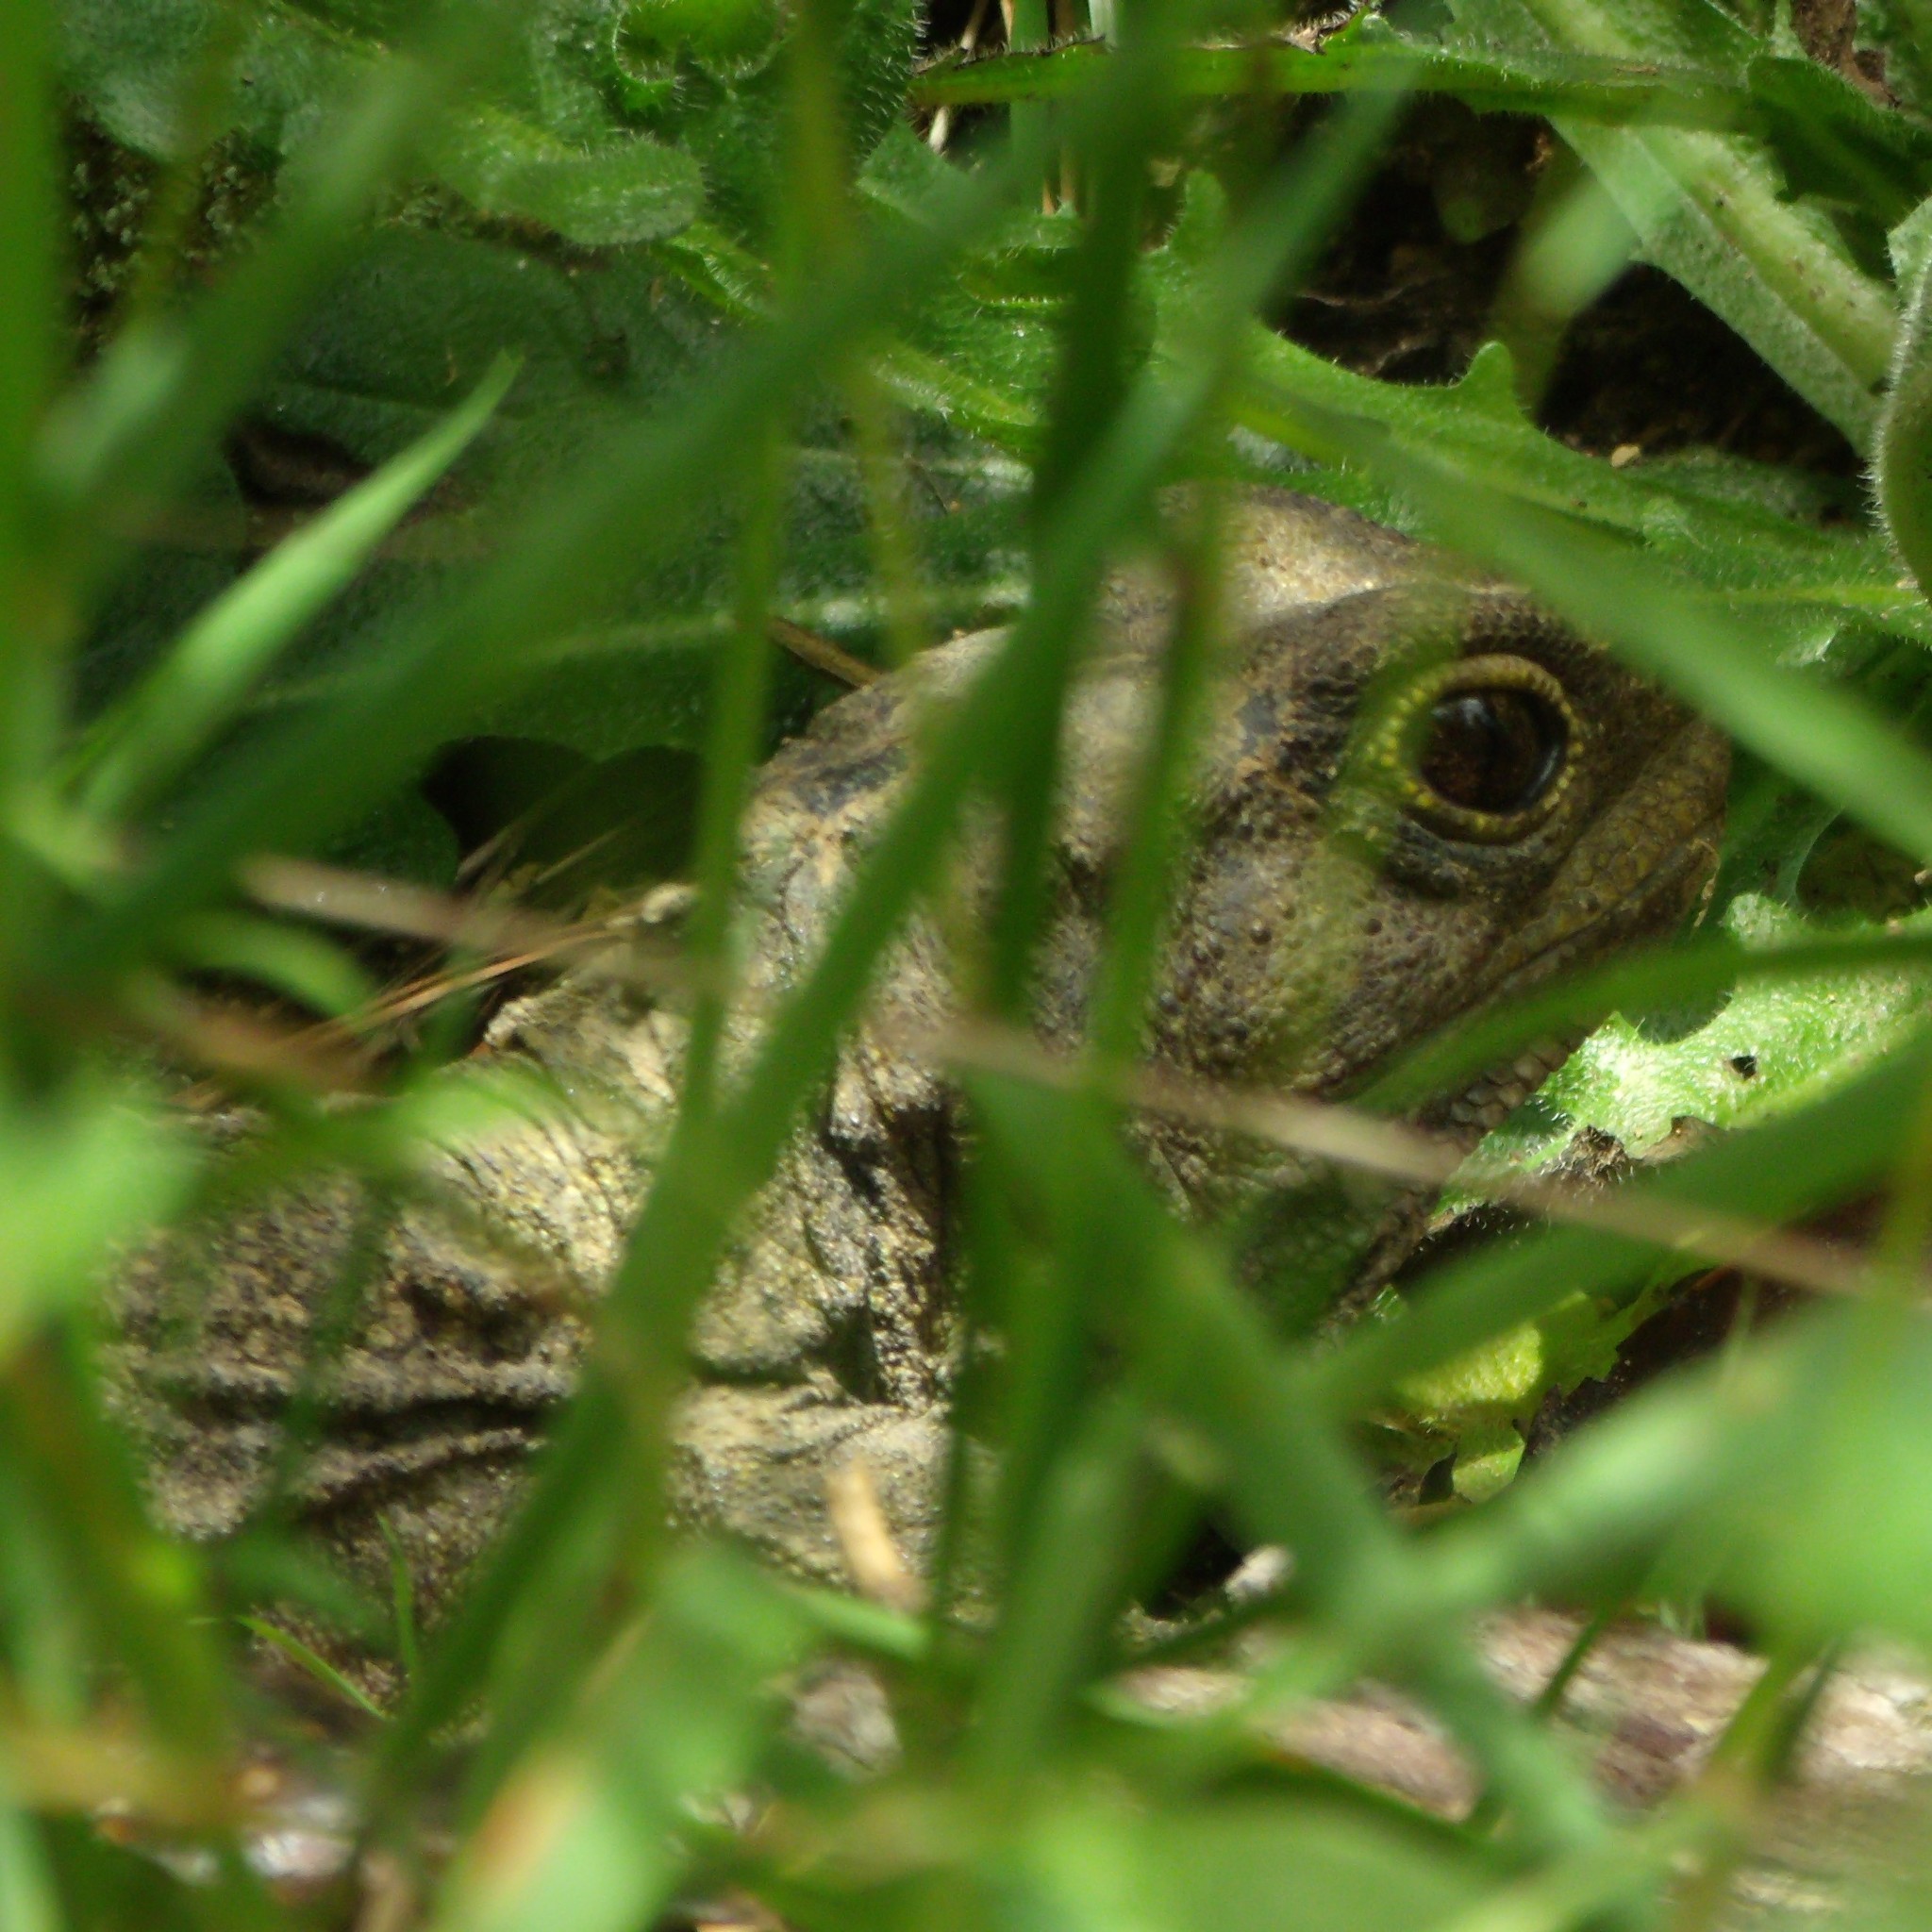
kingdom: Animalia
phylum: Chordata
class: Sphenodontia
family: Sphenodontidae
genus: Sphenodon
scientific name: Sphenodon punctatus
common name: Tuatara
